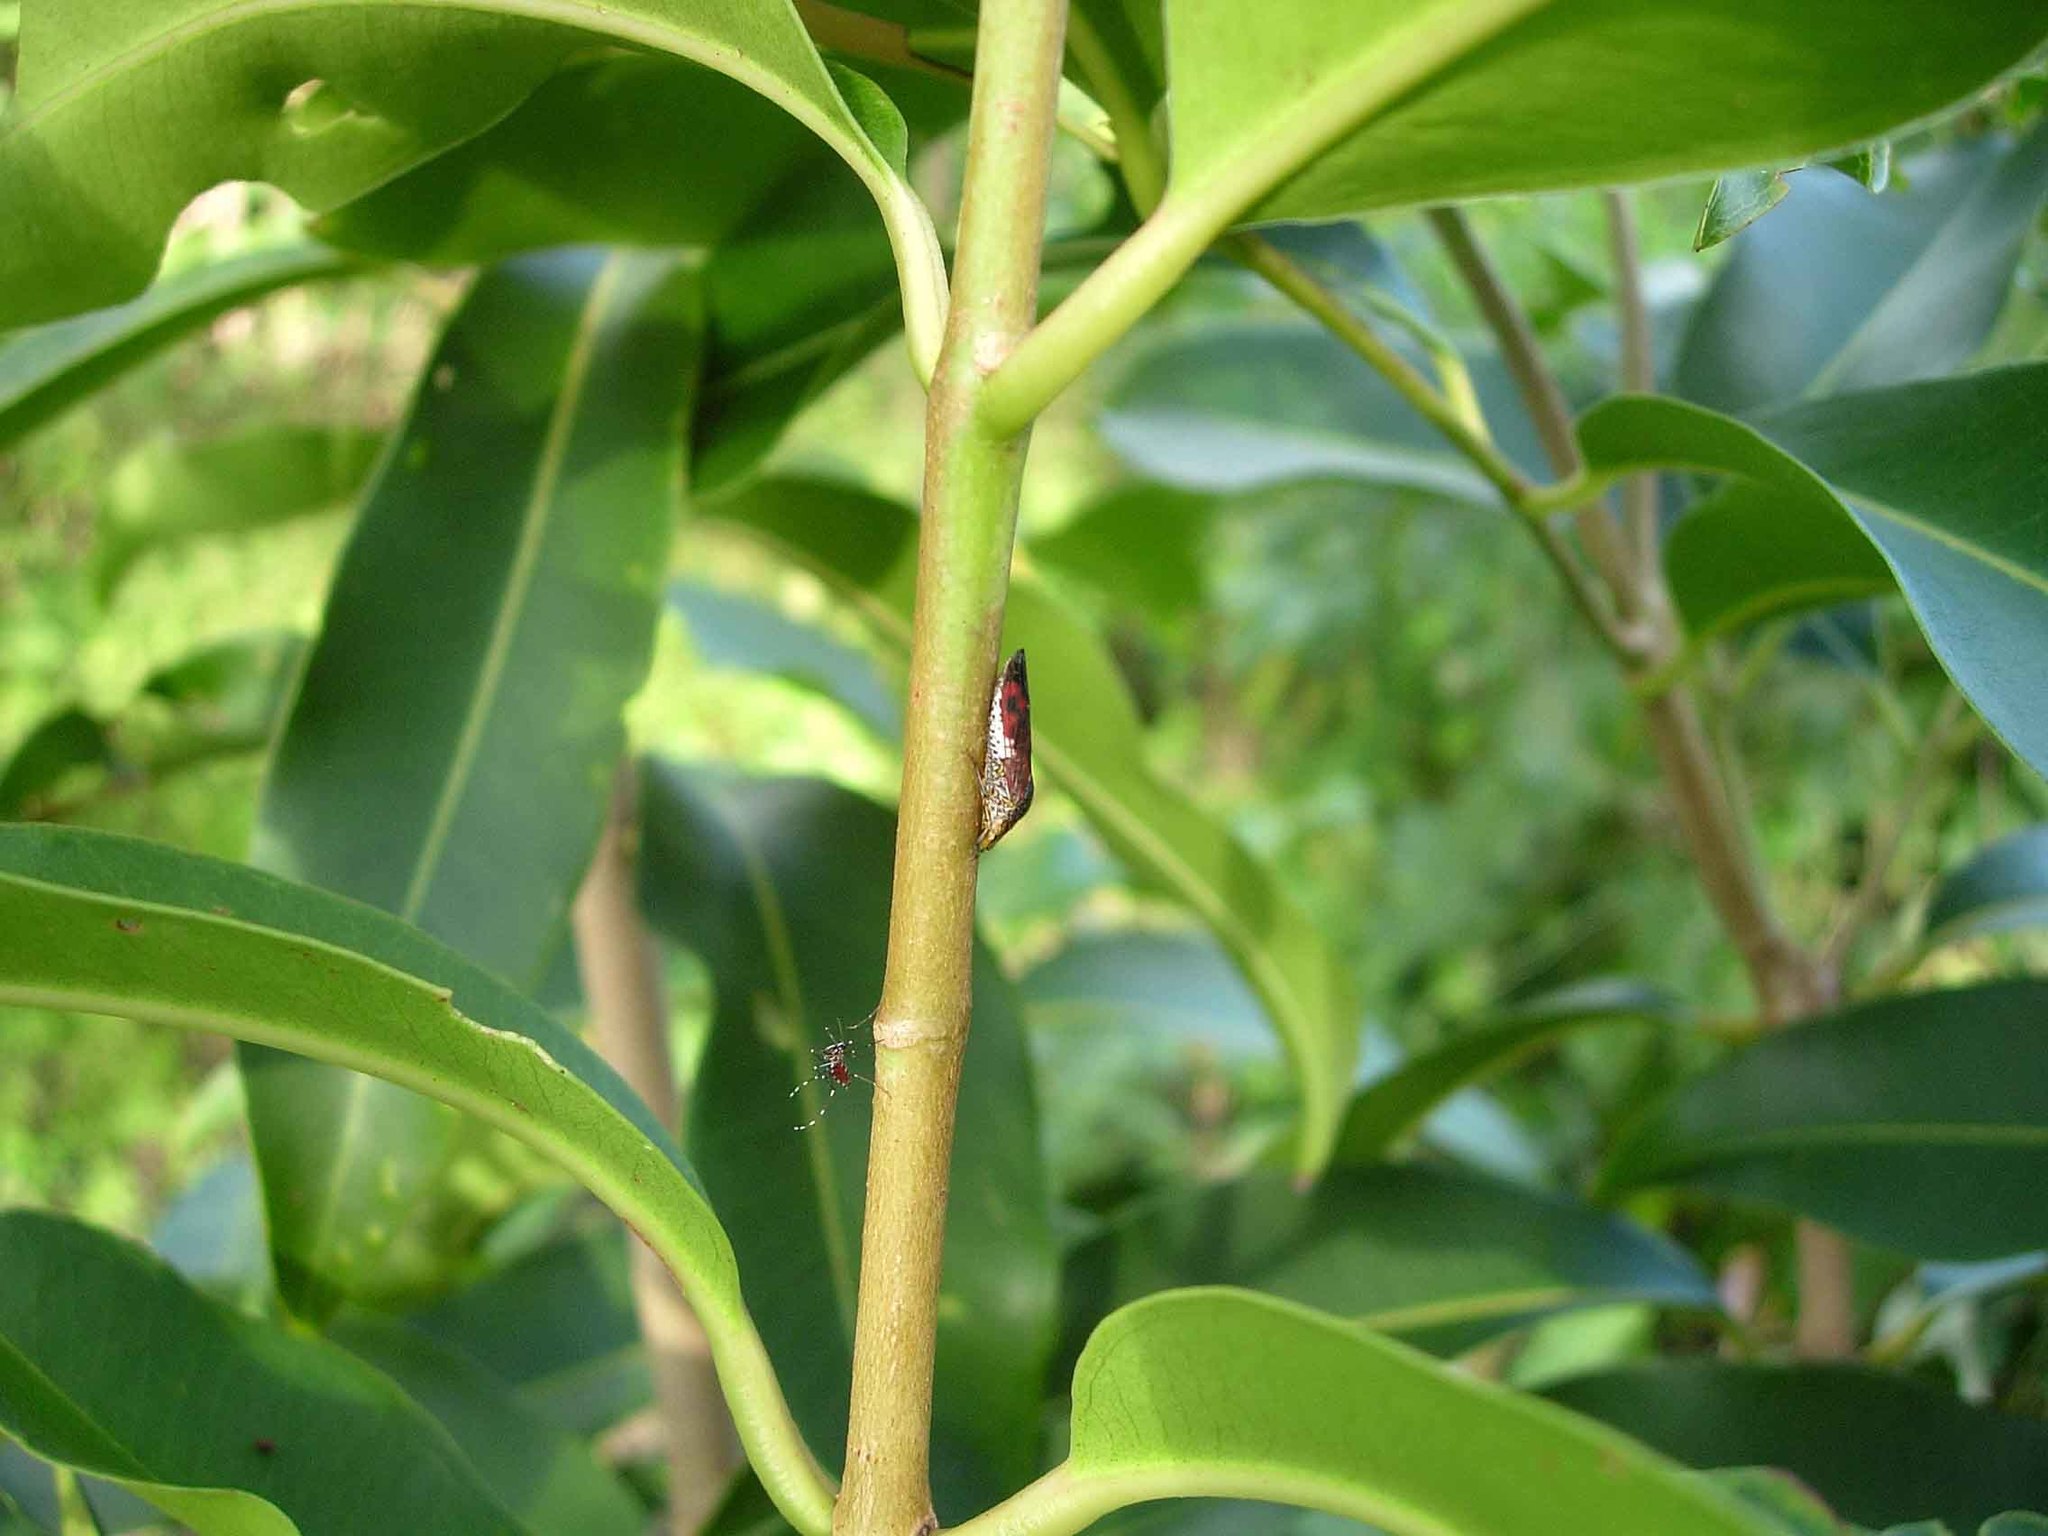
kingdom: Animalia
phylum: Arthropoda
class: Insecta
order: Hemiptera
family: Cicadellidae
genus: Homalodisca
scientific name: Homalodisca vitripennis
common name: Glassy-winged sharpshooter
